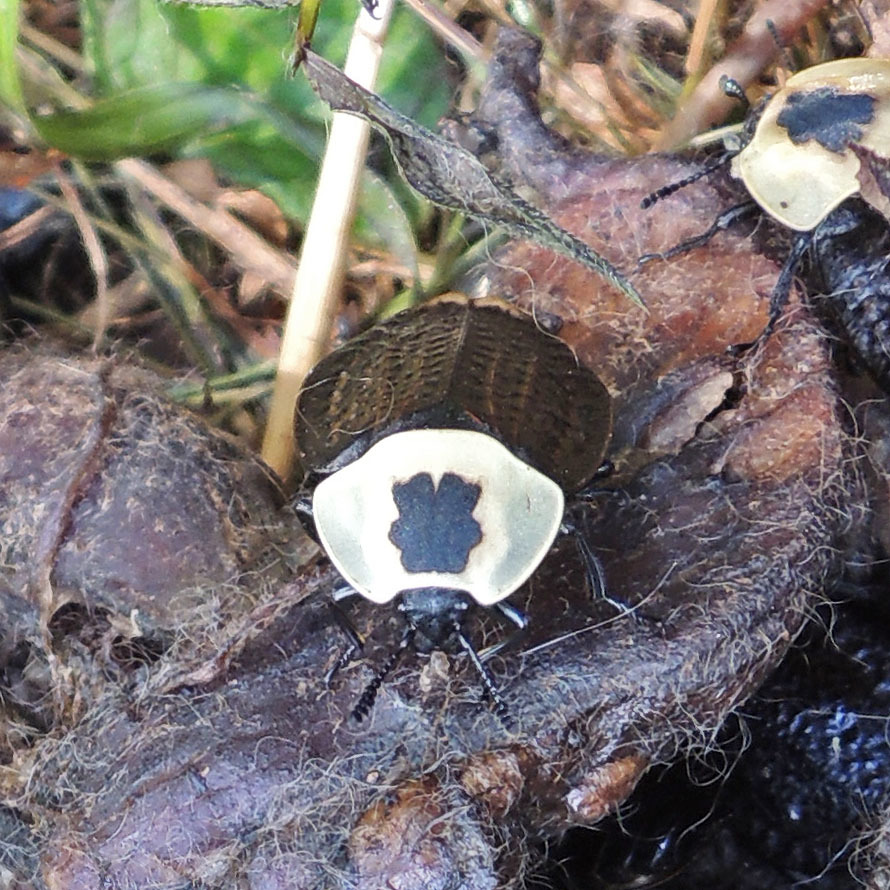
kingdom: Animalia
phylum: Arthropoda
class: Insecta
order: Coleoptera
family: Staphylinidae
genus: Necrophila
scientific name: Necrophila americana
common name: American carrion beetle
